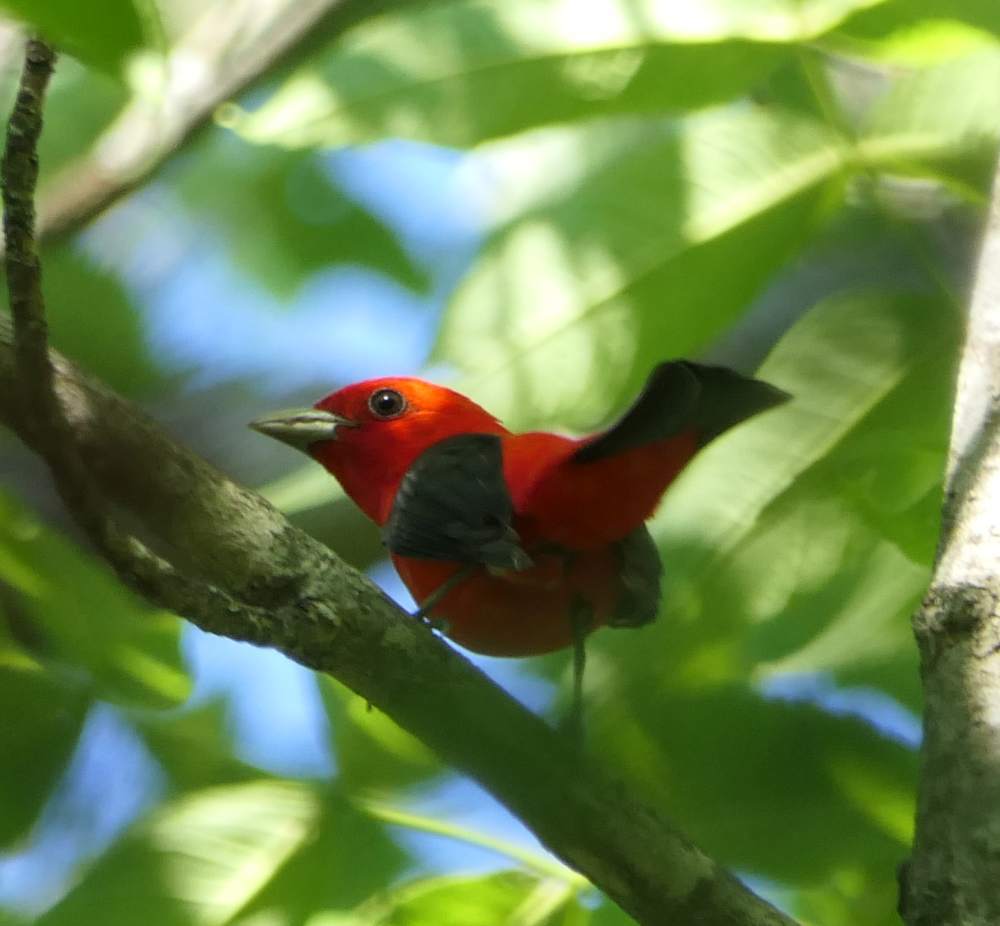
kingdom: Animalia
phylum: Chordata
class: Aves
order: Passeriformes
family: Cardinalidae
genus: Piranga
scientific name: Piranga olivacea
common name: Scarlet tanager
